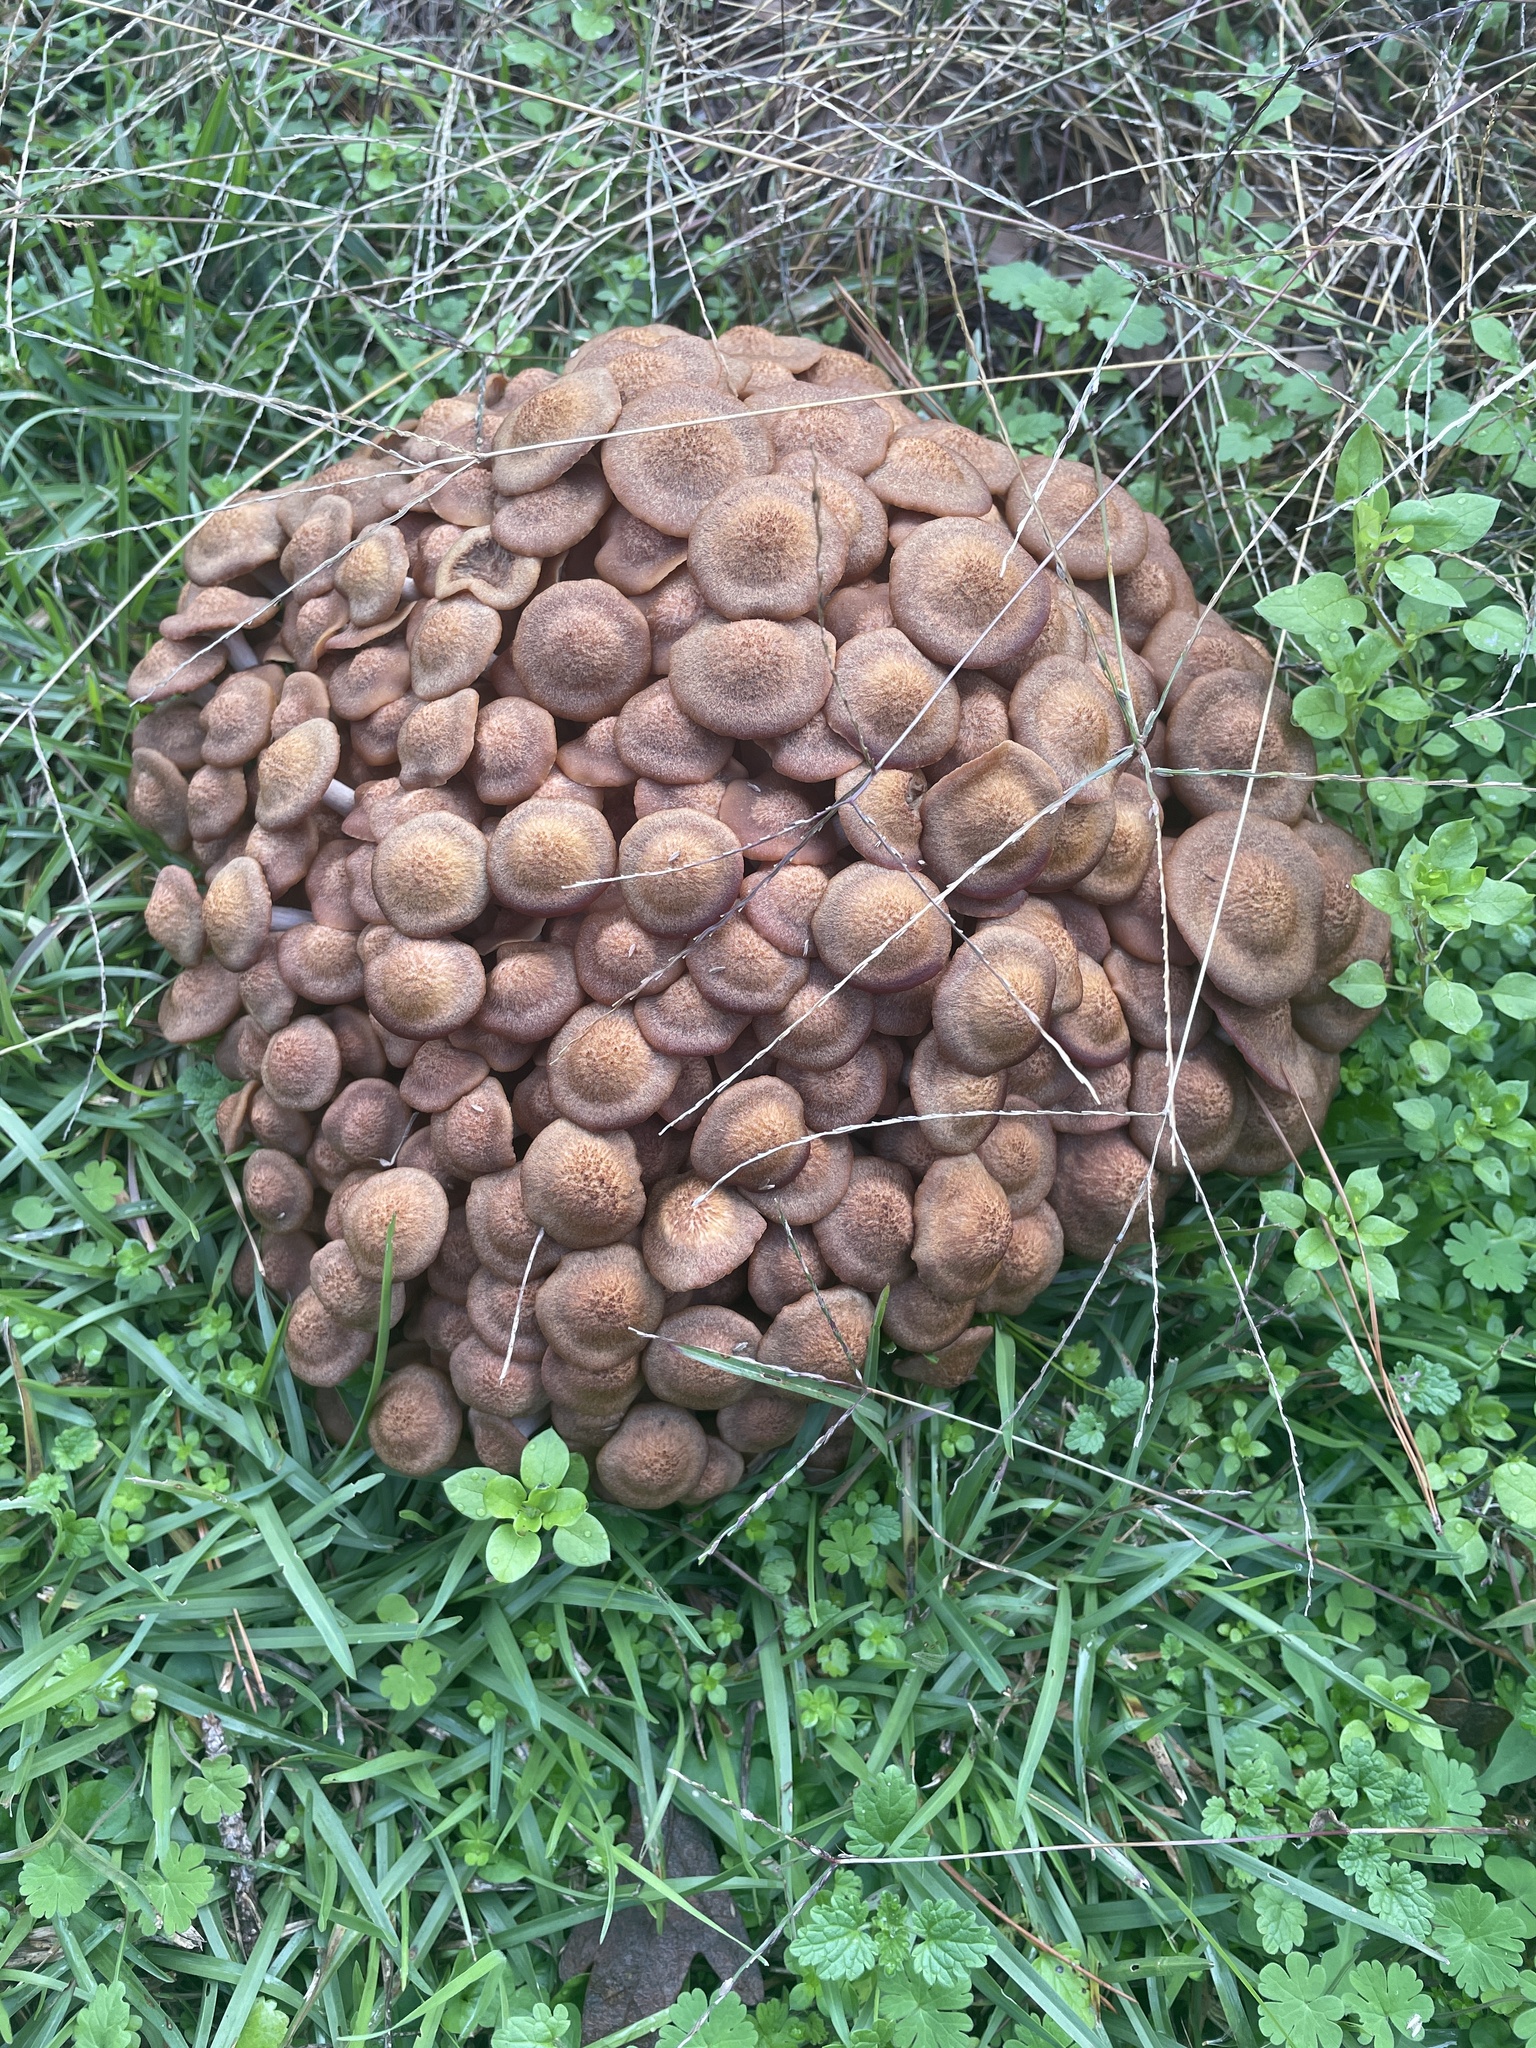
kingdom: Fungi
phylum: Basidiomycota
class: Agaricomycetes
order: Agaricales
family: Physalacriaceae
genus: Desarmillaria
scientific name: Desarmillaria caespitosa
